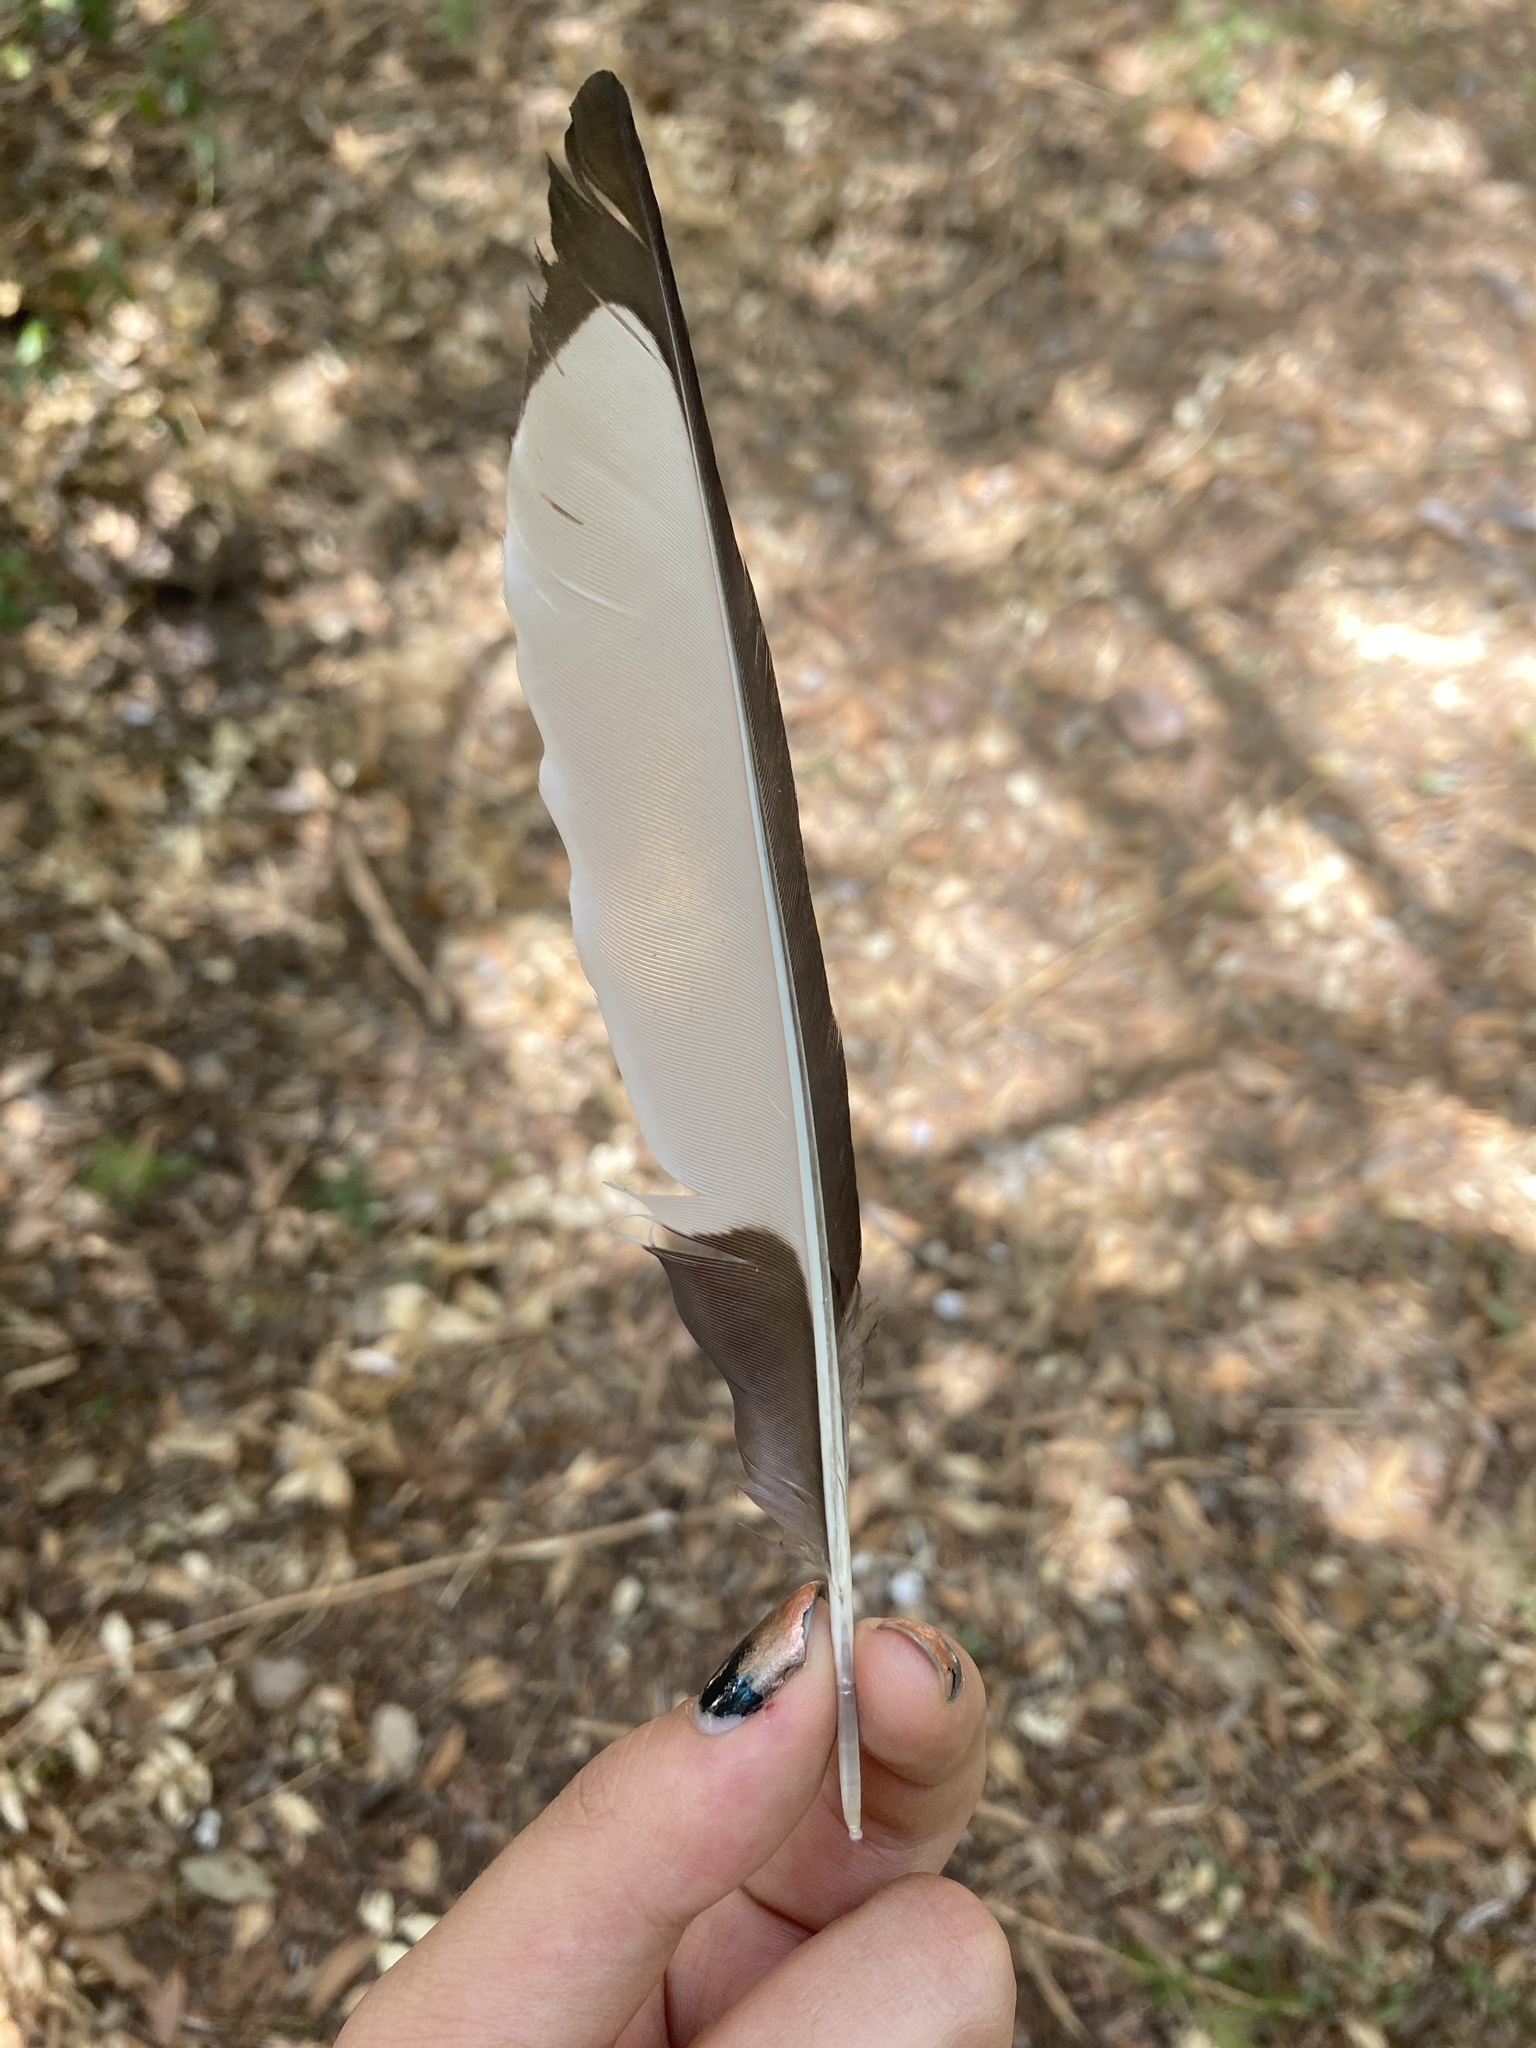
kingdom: Animalia
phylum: Chordata
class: Aves
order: Passeriformes
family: Corvidae
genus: Pica
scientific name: Pica pica
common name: Eurasian magpie
